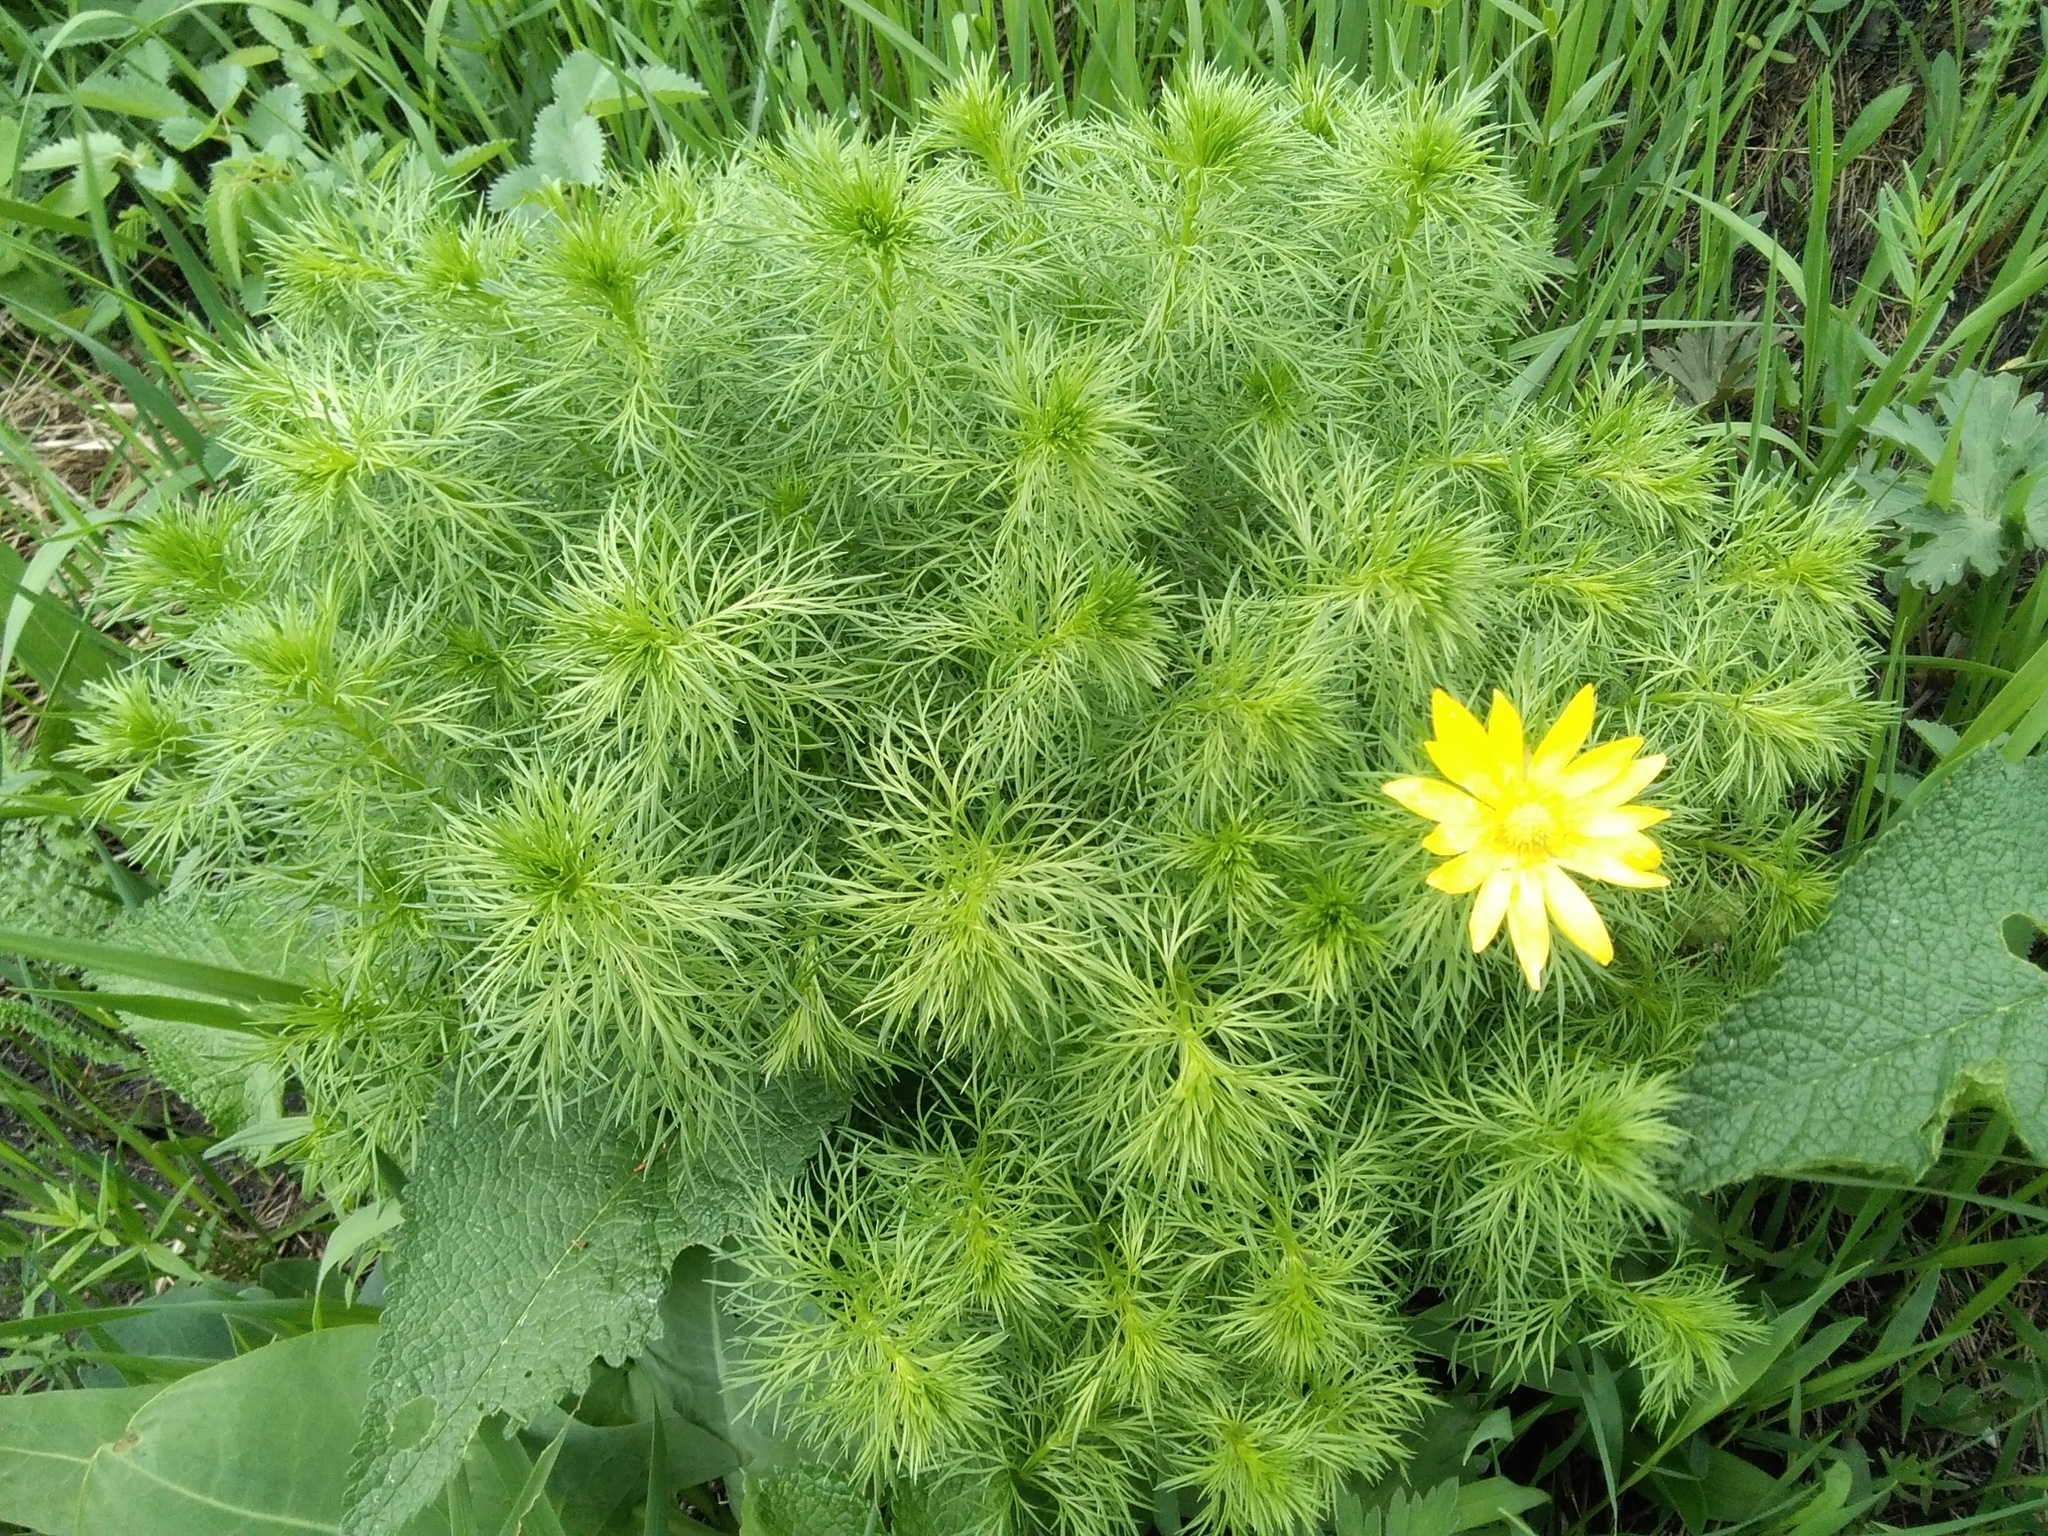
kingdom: Plantae
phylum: Tracheophyta
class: Magnoliopsida
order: Ranunculales
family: Ranunculaceae
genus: Adonis
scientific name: Adonis vernalis
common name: Yellow pheasants-eye
